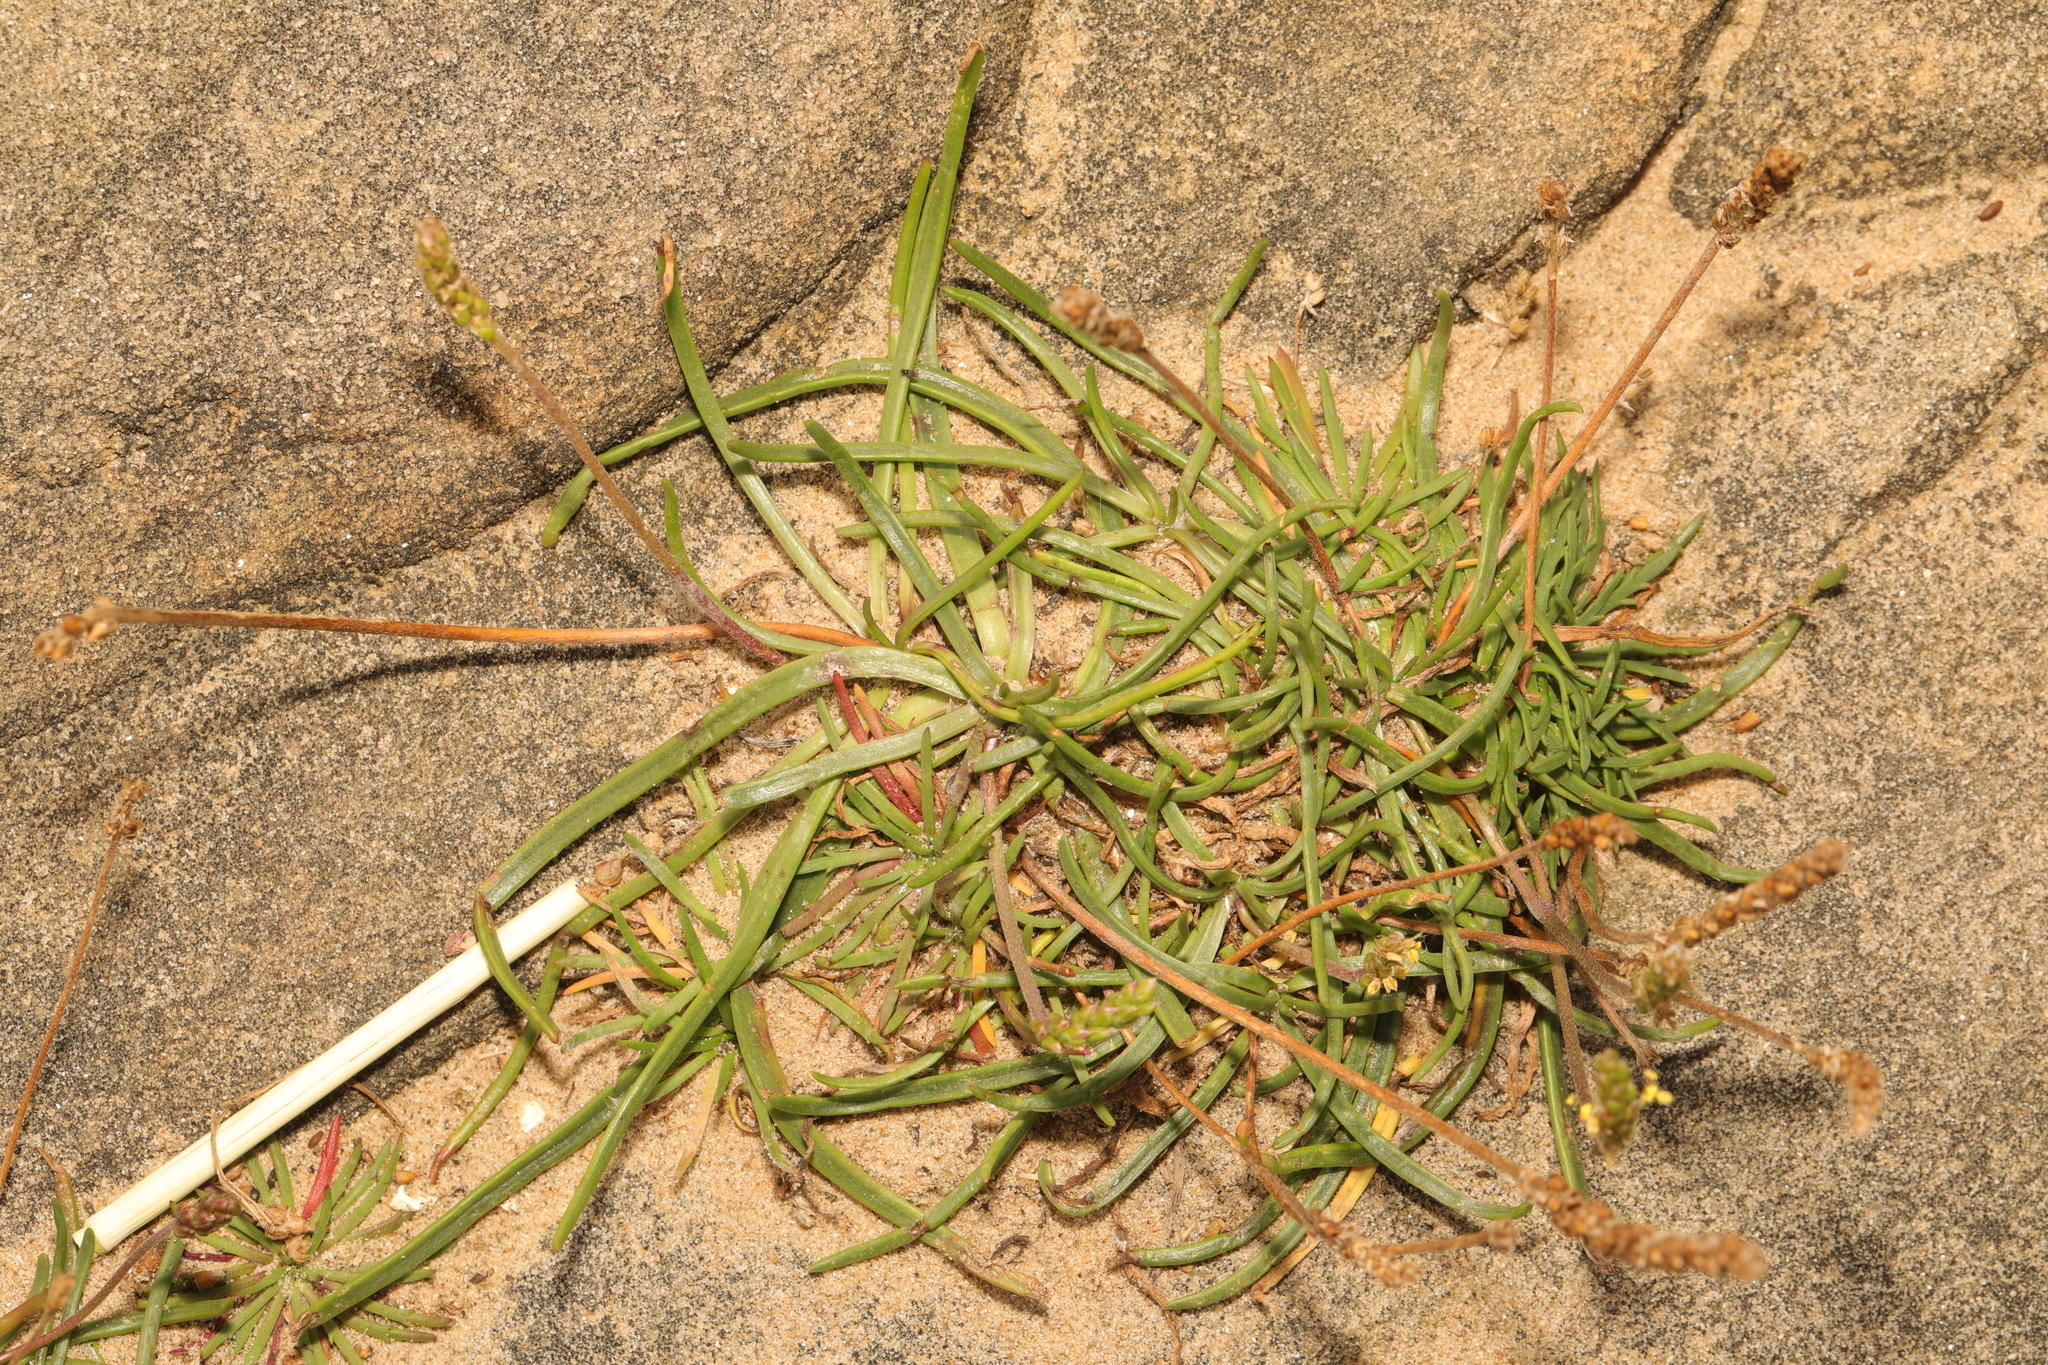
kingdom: Plantae
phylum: Tracheophyta
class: Magnoliopsida
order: Lamiales
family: Plantaginaceae
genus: Plantago
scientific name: Plantago coronopus
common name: Buck's-horn plantain
